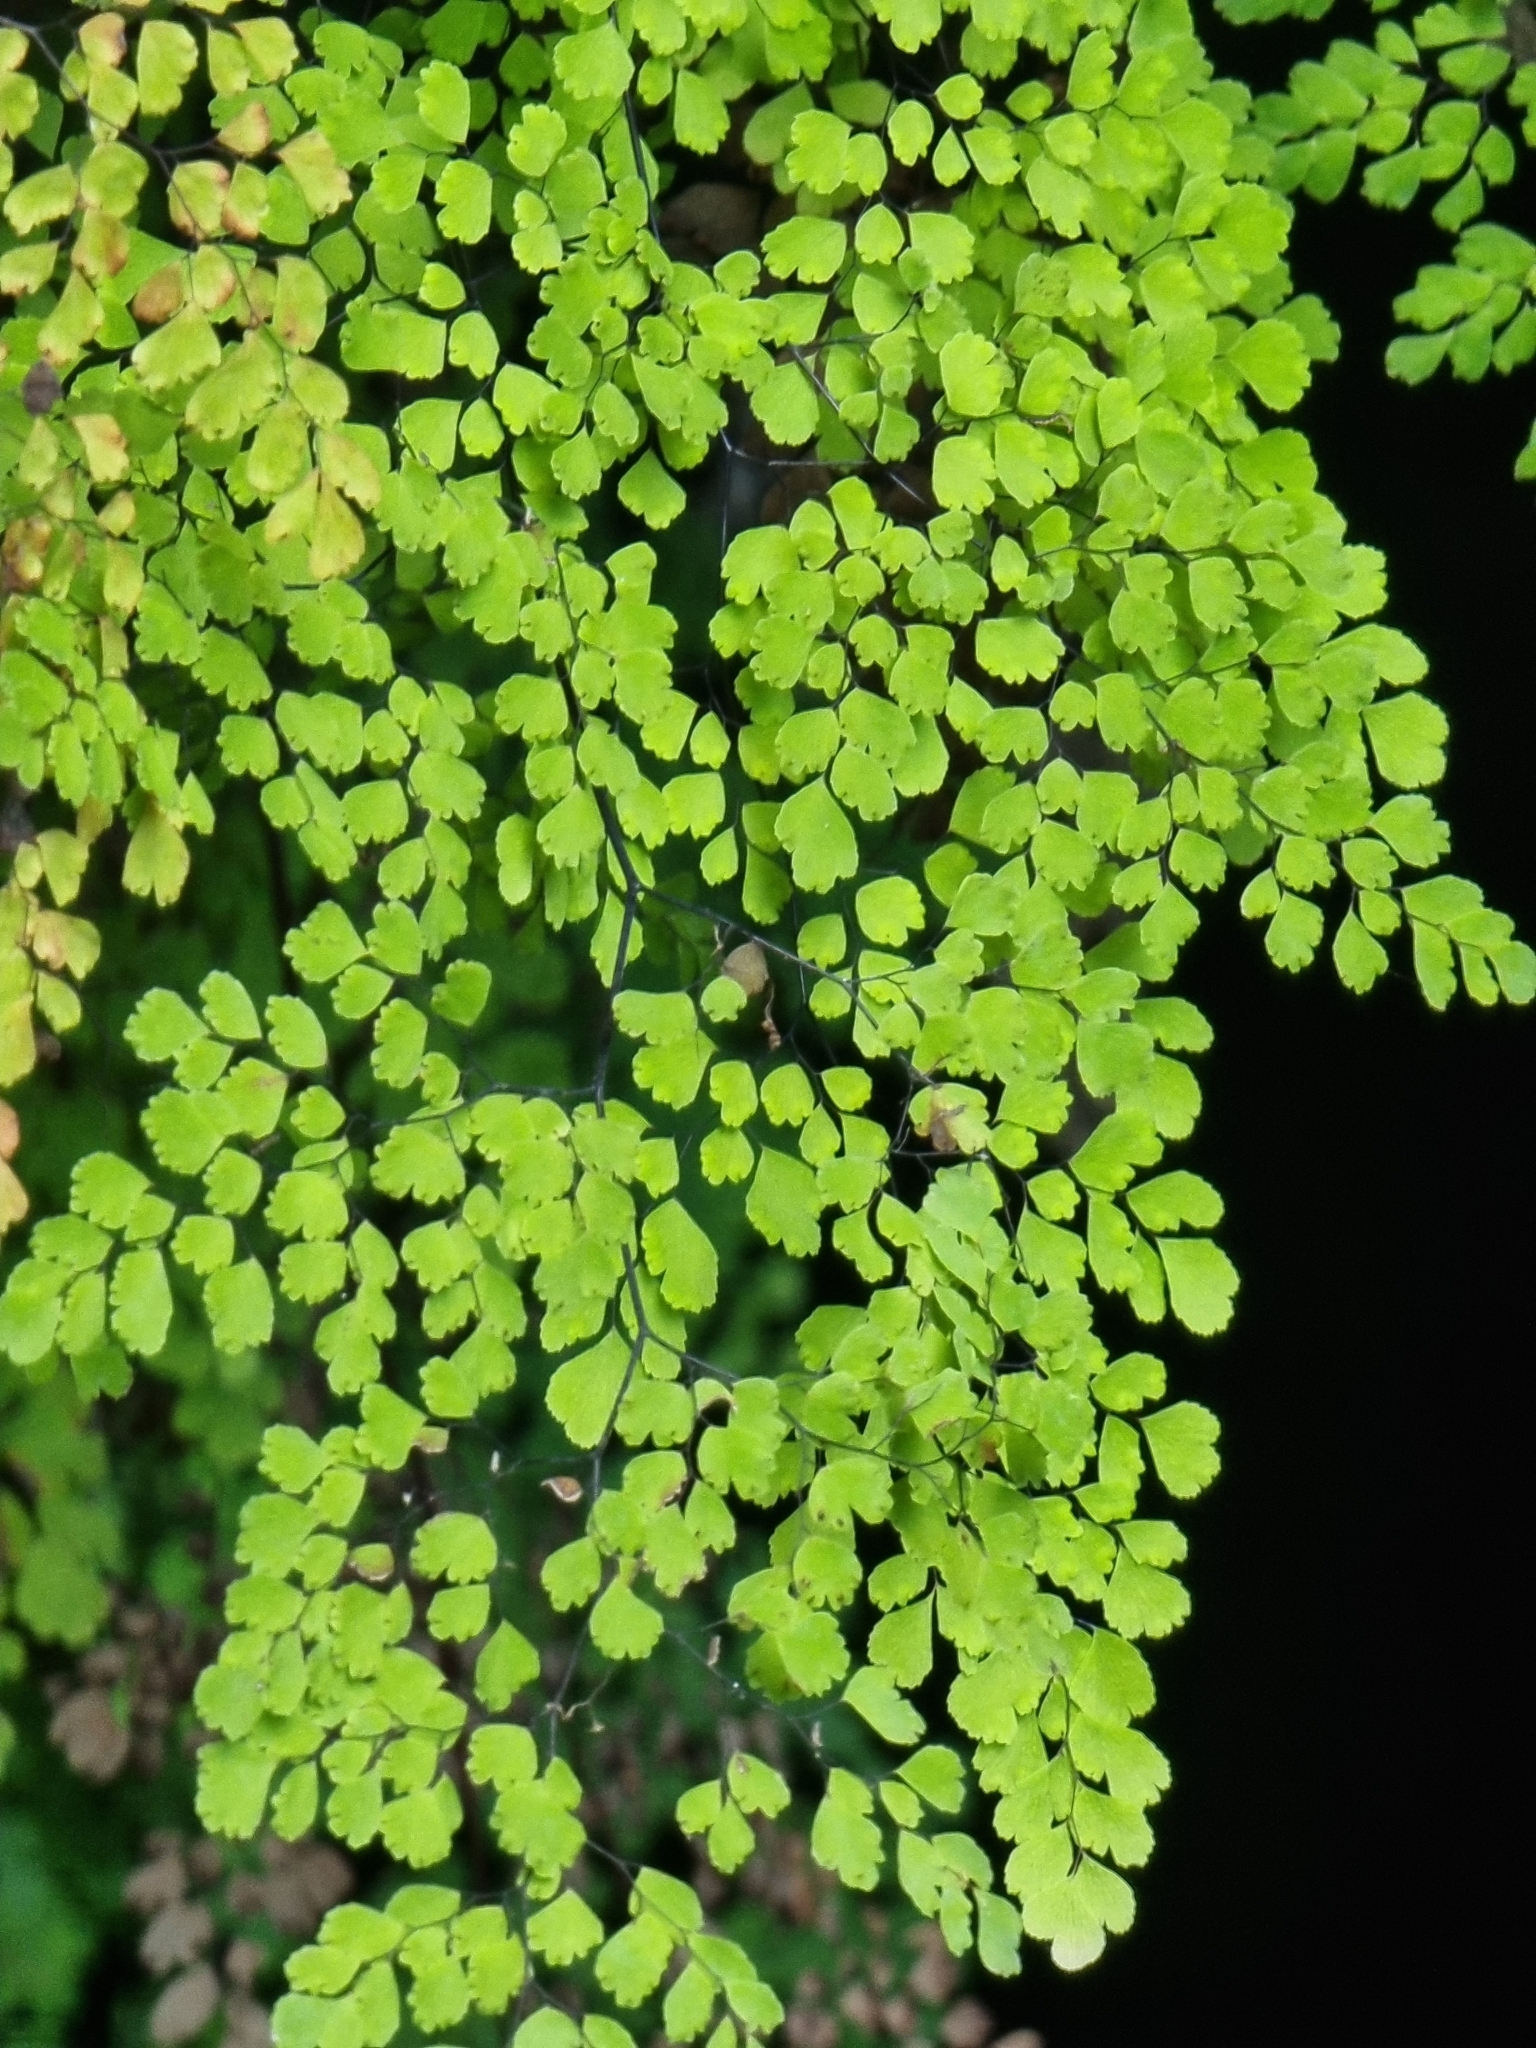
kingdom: Plantae
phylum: Tracheophyta
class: Polypodiopsida
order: Polypodiales
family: Pteridaceae
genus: Adiantum
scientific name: Adiantum raddianum
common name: Delta maidenhair fern
